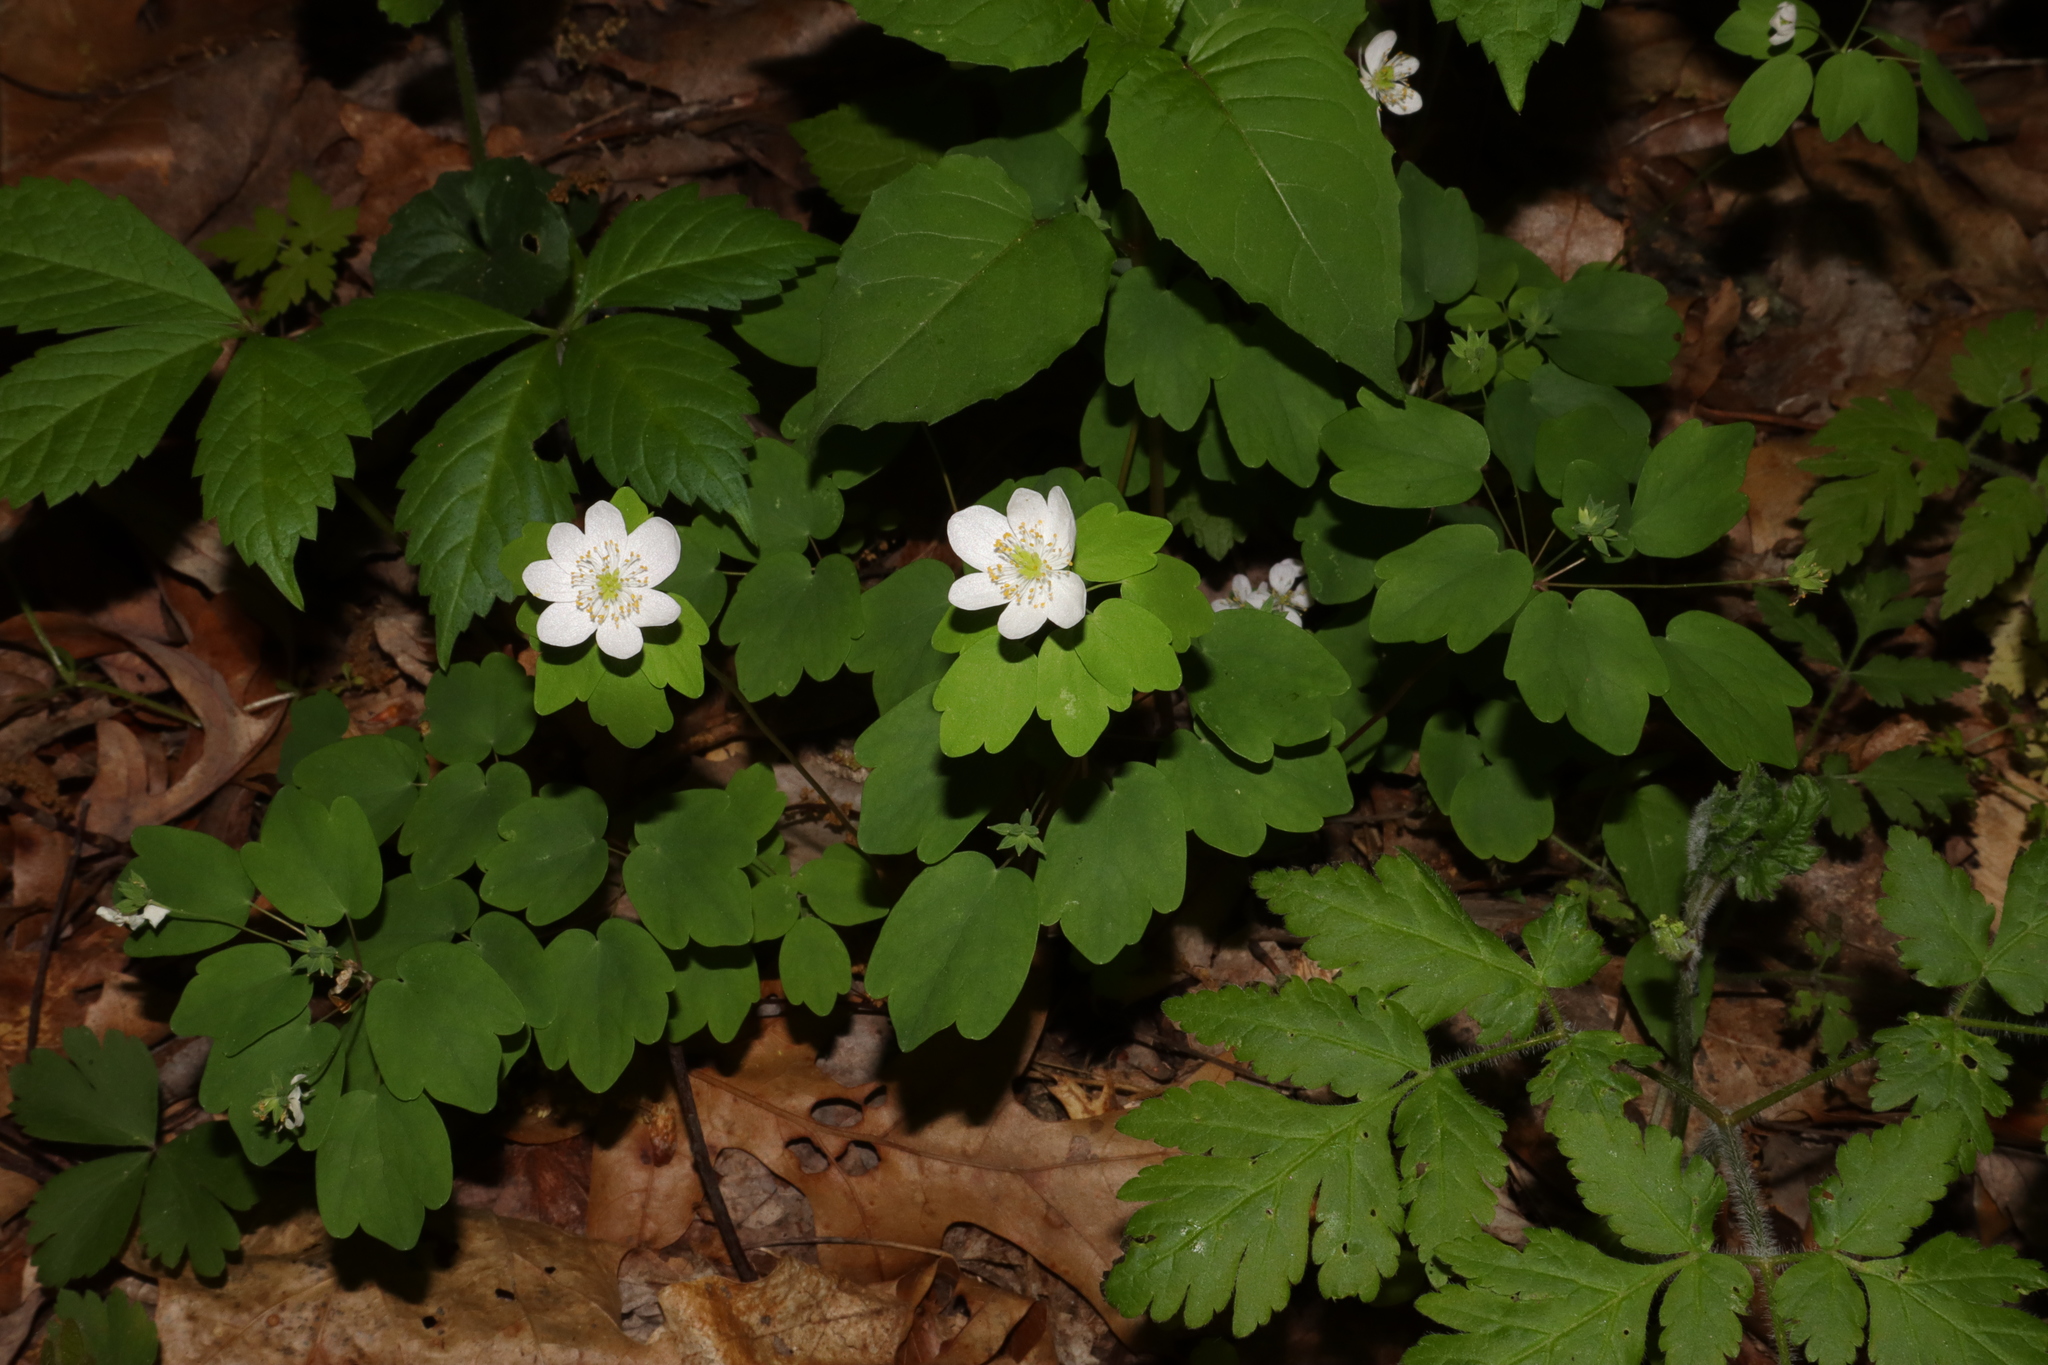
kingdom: Plantae
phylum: Tracheophyta
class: Magnoliopsida
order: Ranunculales
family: Ranunculaceae
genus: Enemion
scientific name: Enemion biternatum
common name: Eastern false rue-anemone
